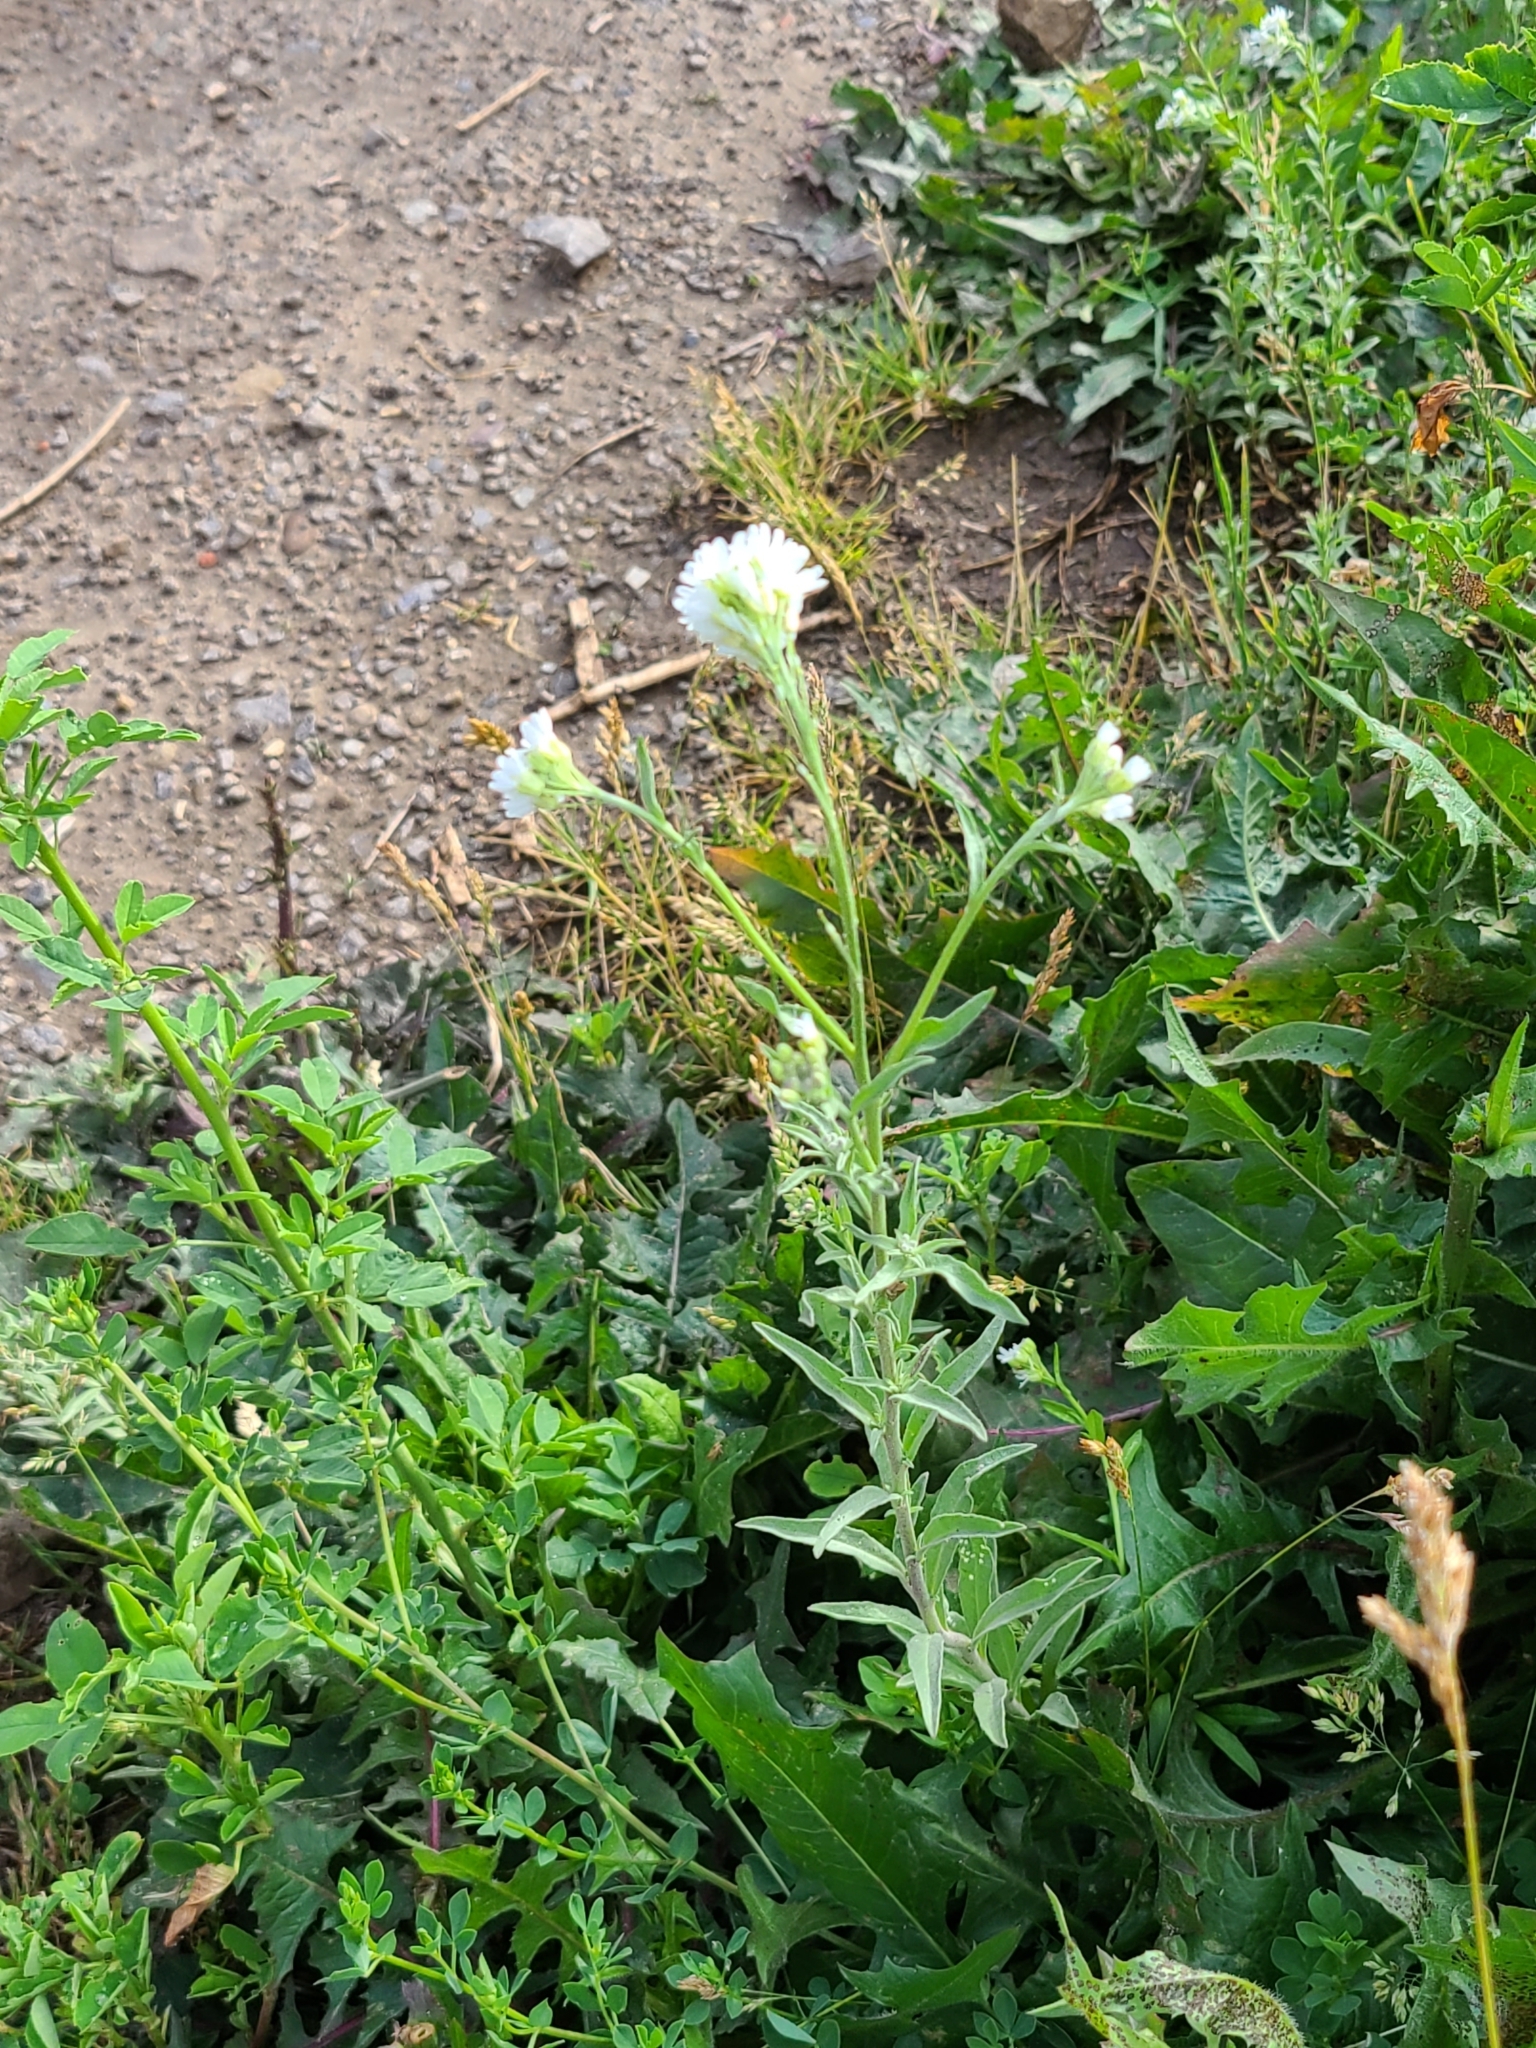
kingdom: Plantae
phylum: Tracheophyta
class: Magnoliopsida
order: Brassicales
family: Brassicaceae
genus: Berteroa
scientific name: Berteroa incana
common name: Hoary alison
